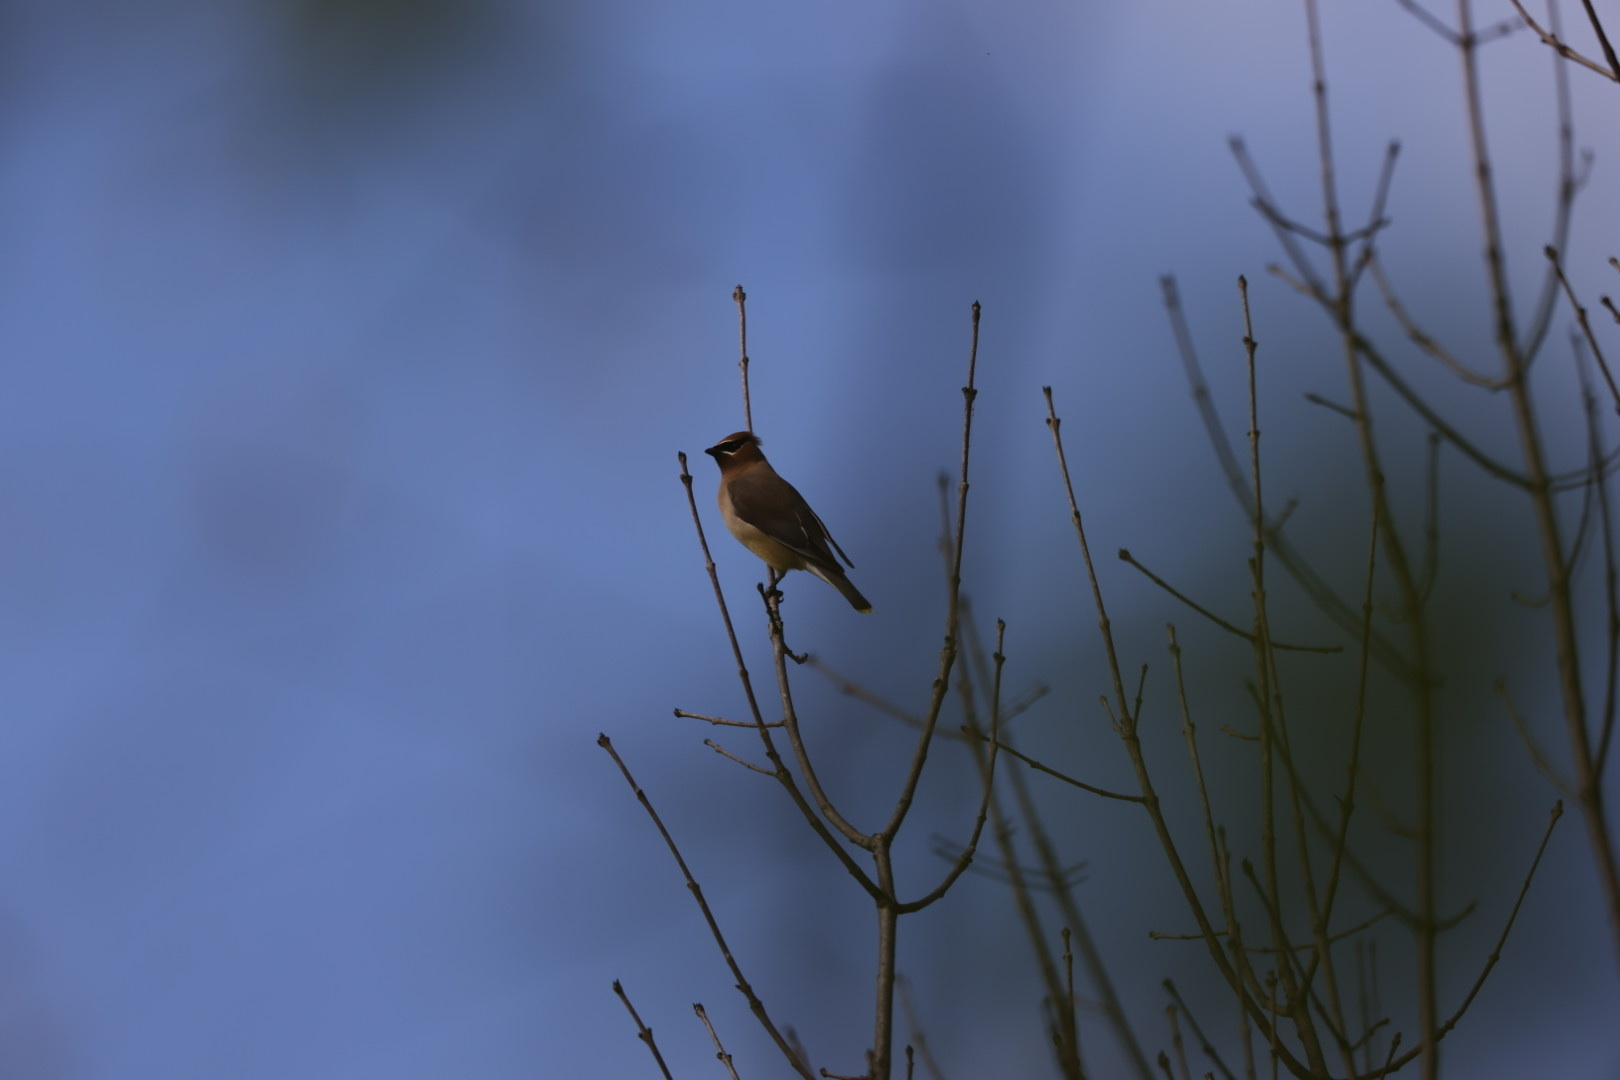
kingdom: Animalia
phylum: Chordata
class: Aves
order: Passeriformes
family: Bombycillidae
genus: Bombycilla
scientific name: Bombycilla cedrorum
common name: Cedar waxwing
